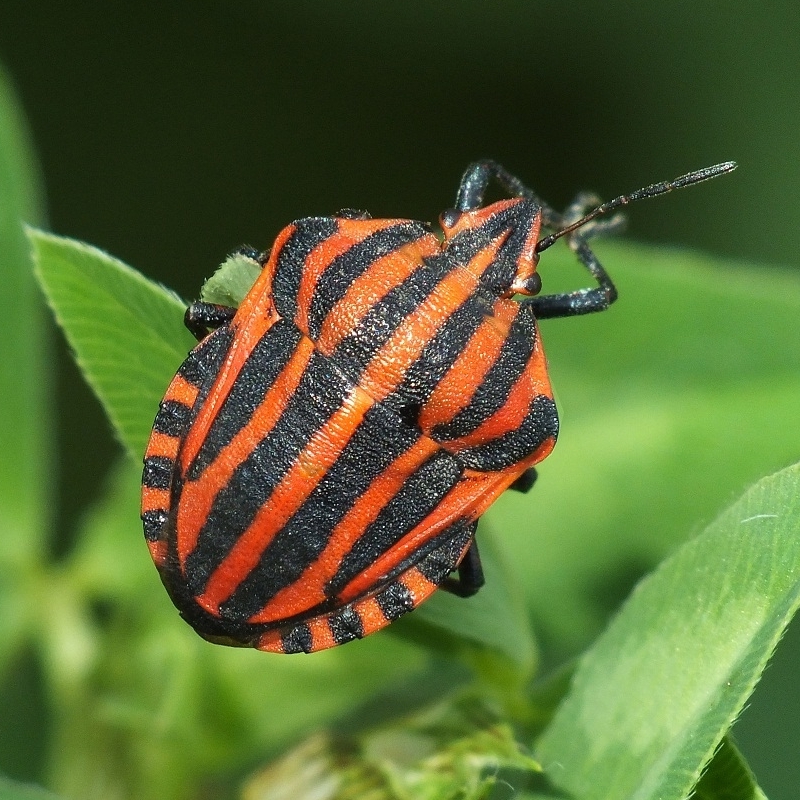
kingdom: Animalia
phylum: Arthropoda
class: Insecta
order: Hemiptera
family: Pentatomidae
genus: Graphosoma
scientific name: Graphosoma italicum
